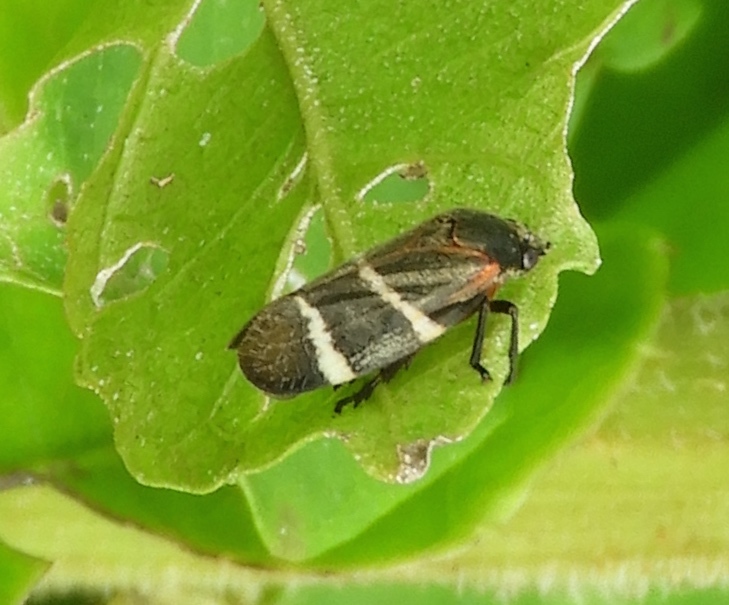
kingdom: Animalia
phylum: Arthropoda
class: Insecta
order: Hemiptera
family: Cercopidae
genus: Aeneolamia
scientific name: Aeneolamia albofasciata
